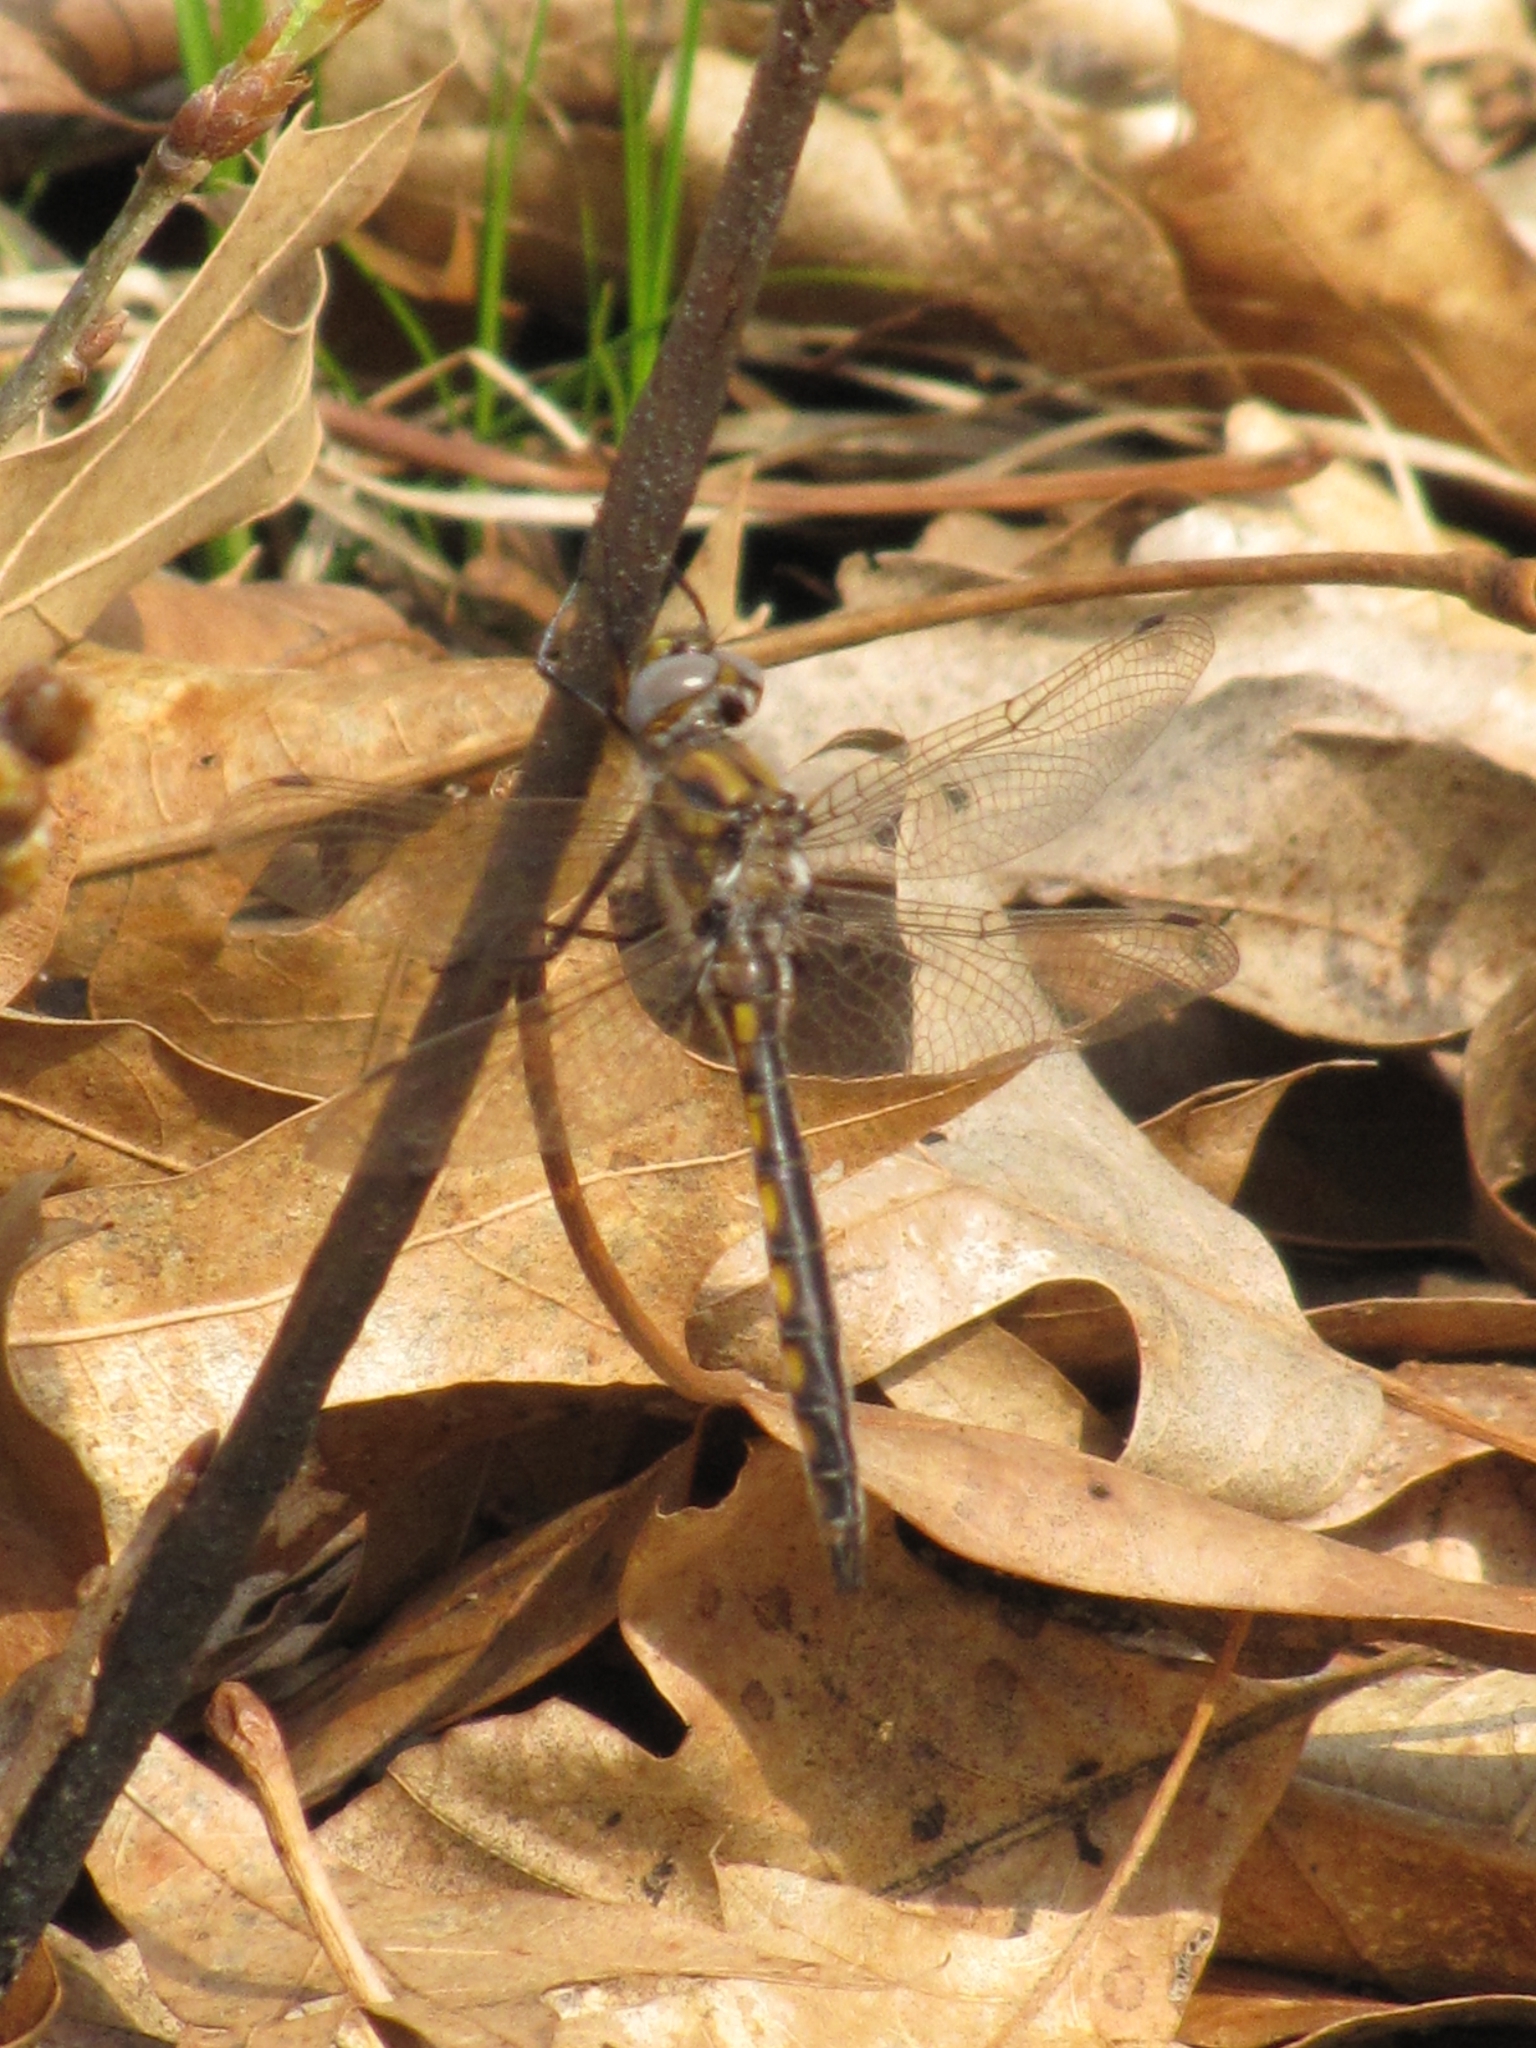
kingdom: Animalia
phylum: Arthropoda
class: Insecta
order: Odonata
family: Corduliidae
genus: Epitheca
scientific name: Epitheca canis
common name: Beaverpond baskettail
